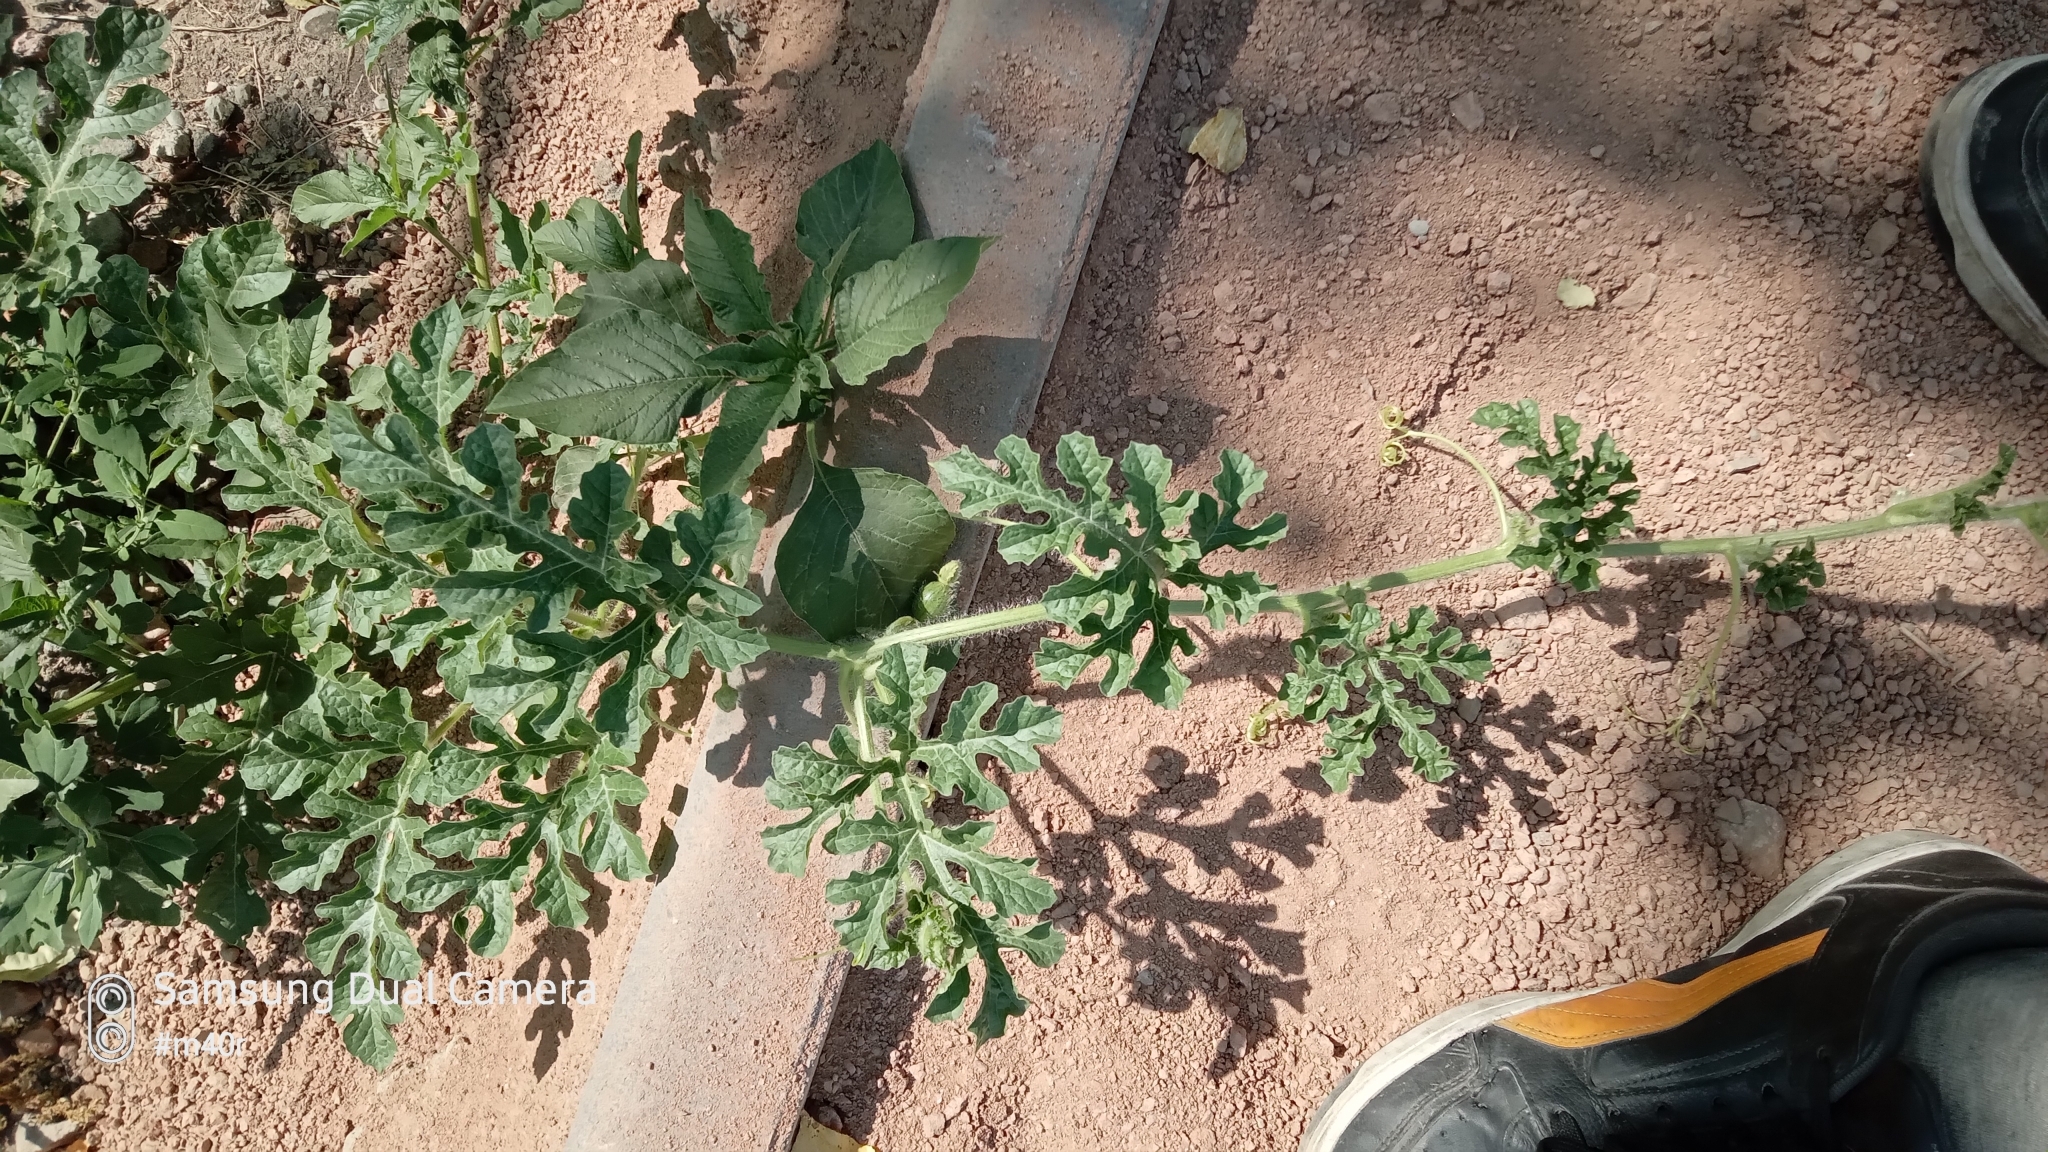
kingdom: Plantae
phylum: Tracheophyta
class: Magnoliopsida
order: Cucurbitales
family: Cucurbitaceae
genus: Citrullus
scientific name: Citrullus lanatus
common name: Watermelon
